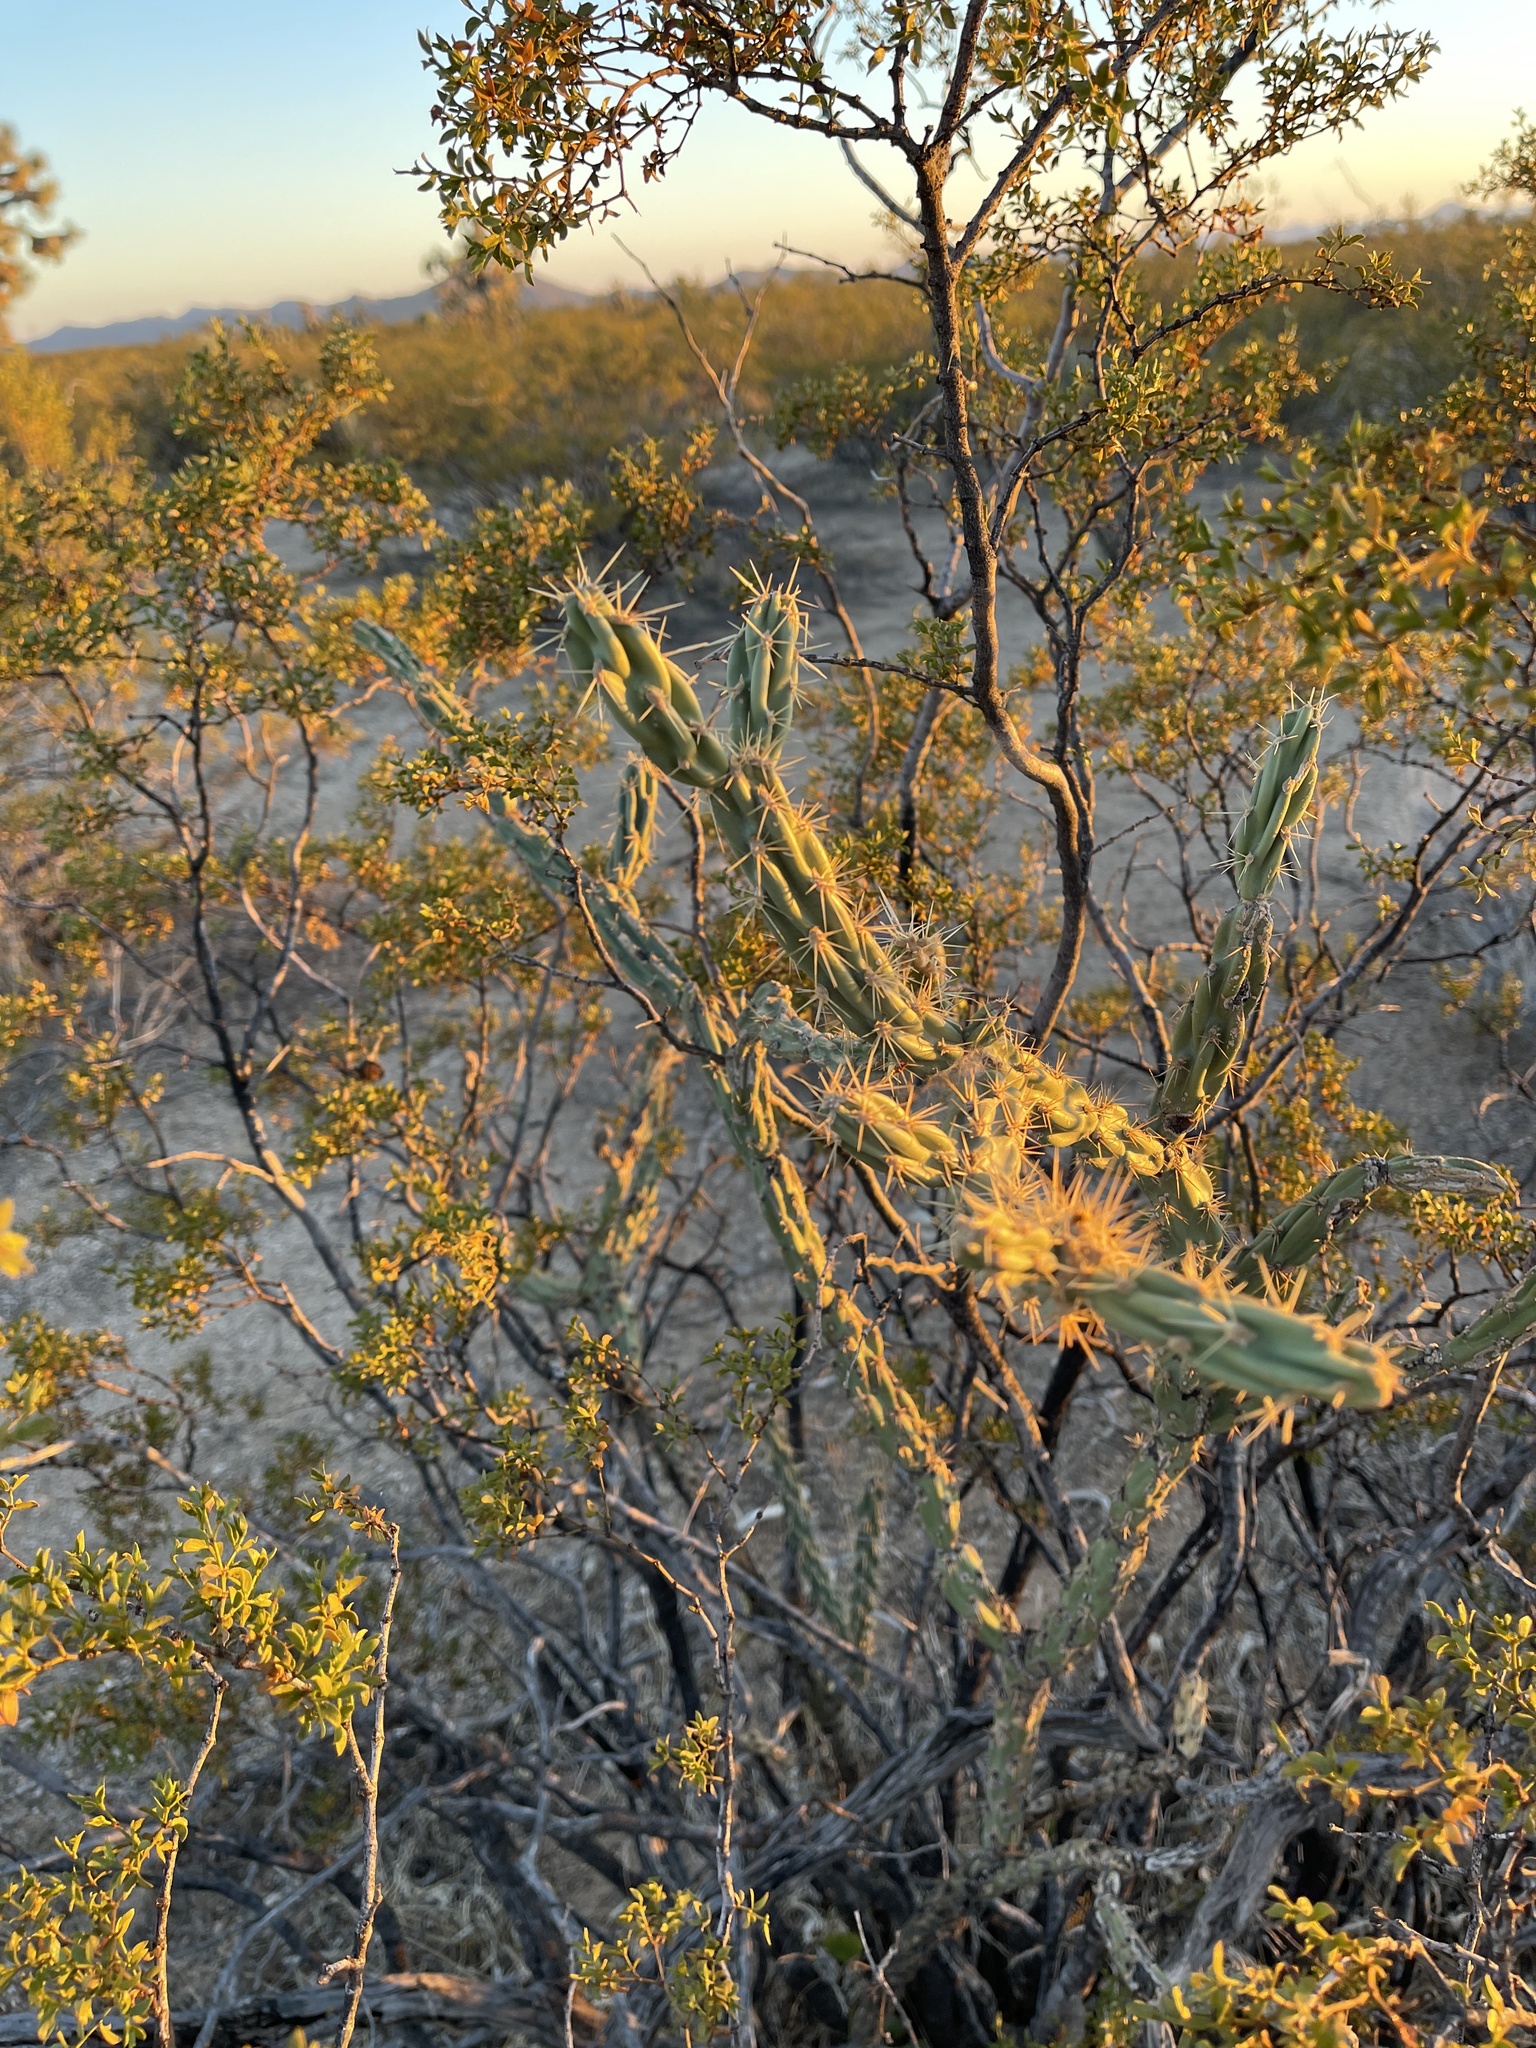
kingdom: Plantae
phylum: Tracheophyta
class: Magnoliopsida
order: Caryophyllales
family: Cactaceae
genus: Cylindropuntia
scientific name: Cylindropuntia acanthocarpa
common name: Buckhorn cholla
